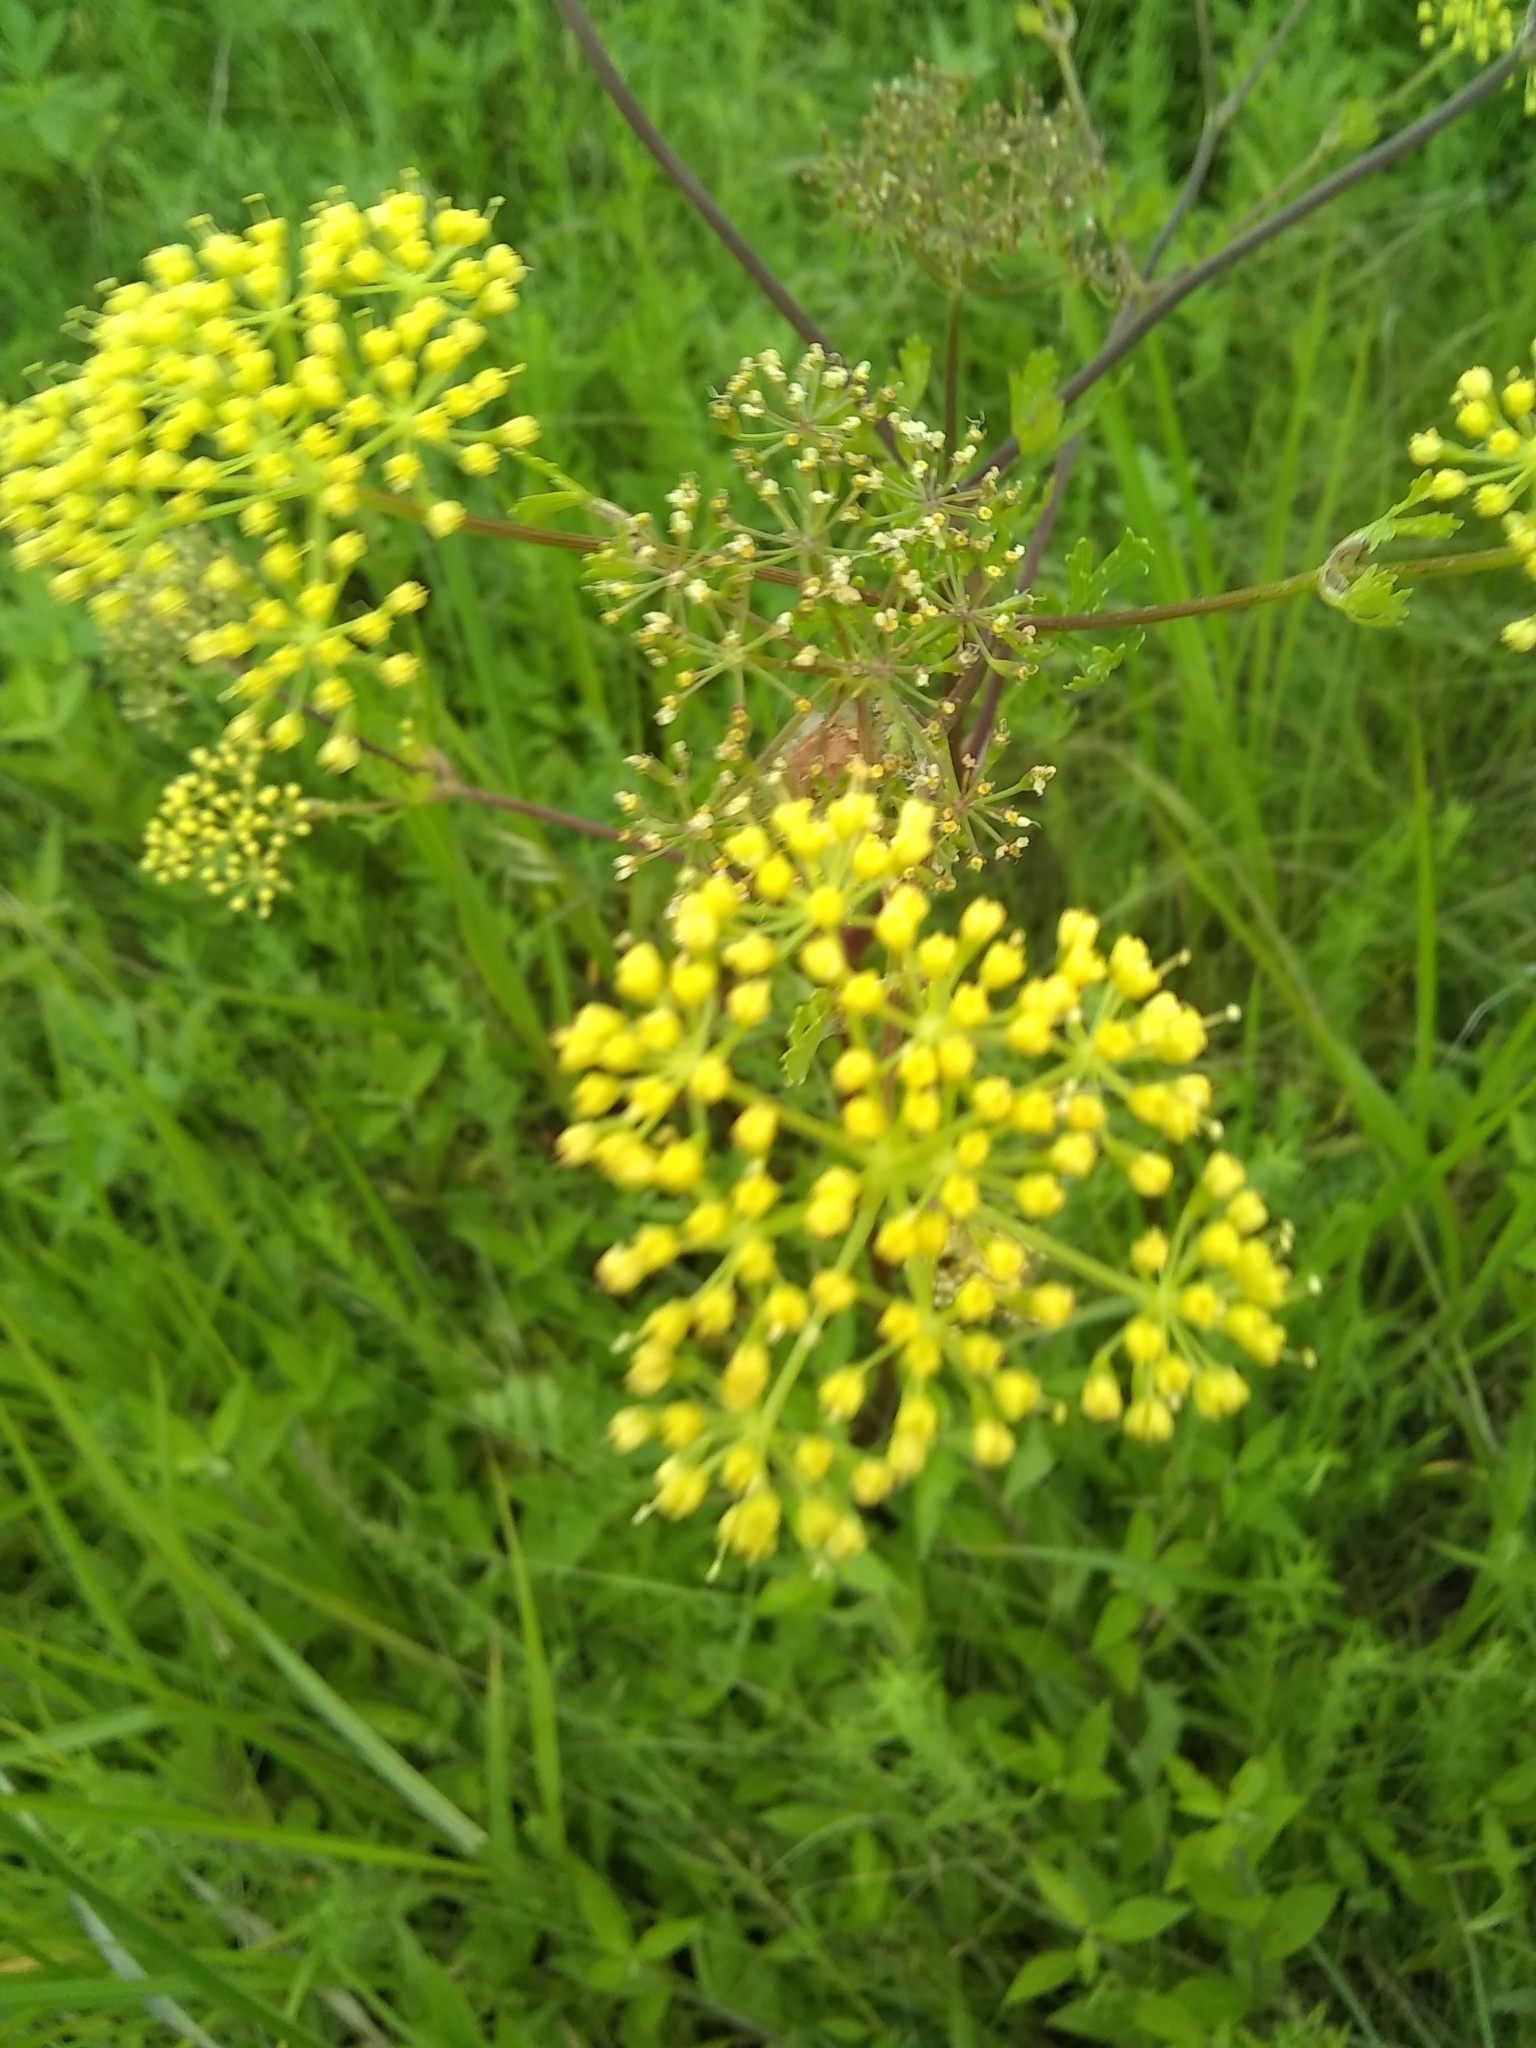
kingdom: Plantae
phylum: Tracheophyta
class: Magnoliopsida
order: Apiales
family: Apiaceae
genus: Polytaenia
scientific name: Polytaenia texana
